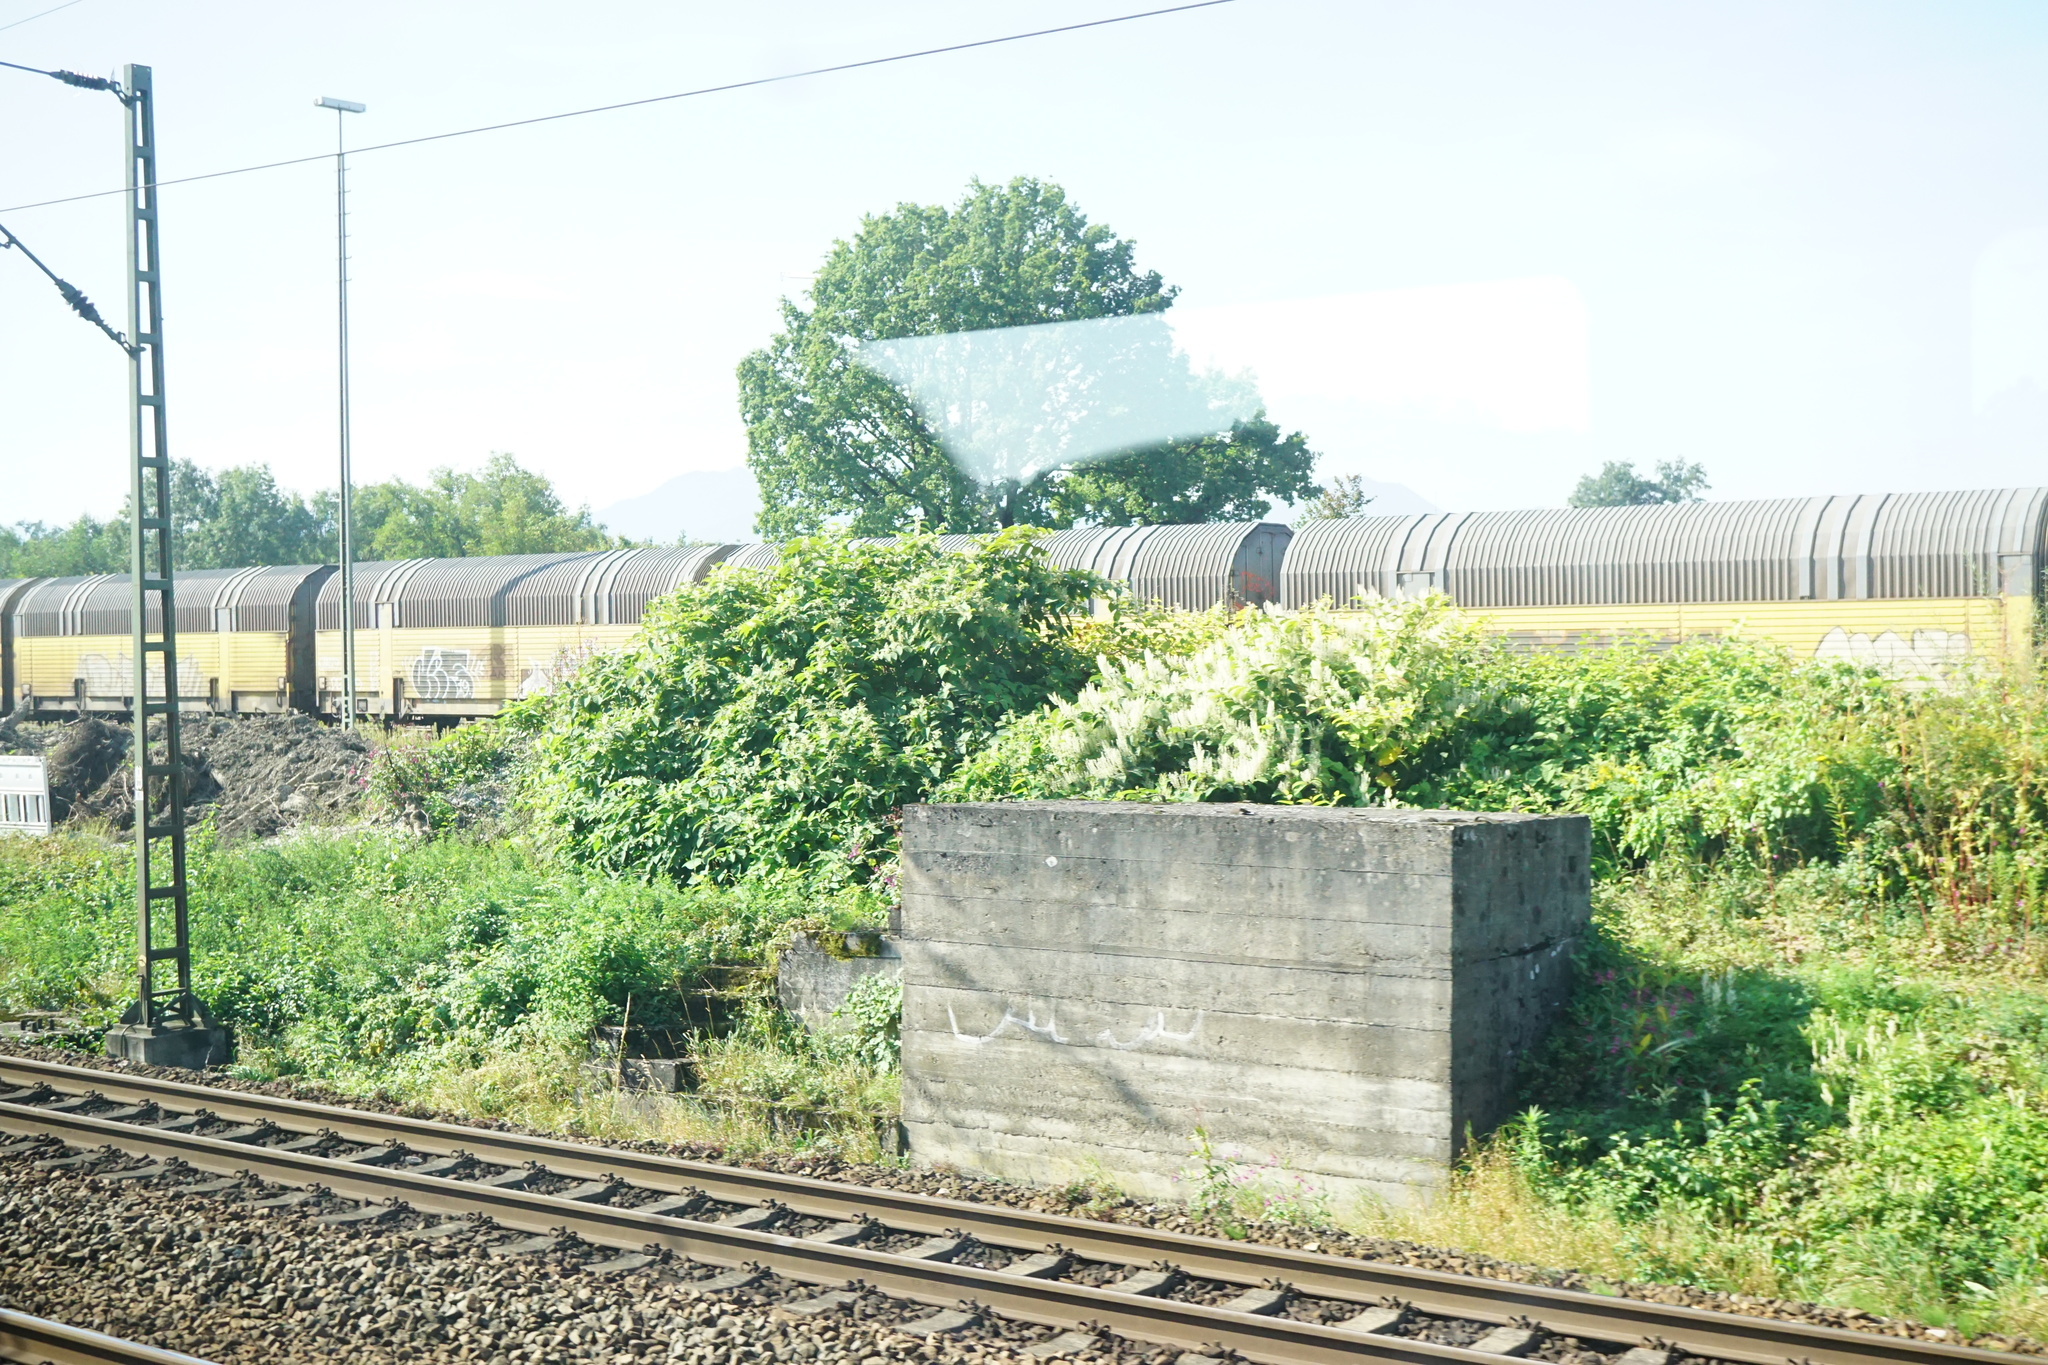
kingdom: Plantae
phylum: Tracheophyta
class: Magnoliopsida
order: Caryophyllales
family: Polygonaceae
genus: Reynoutria
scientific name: Reynoutria bohemica
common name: Bohemian knotweed
